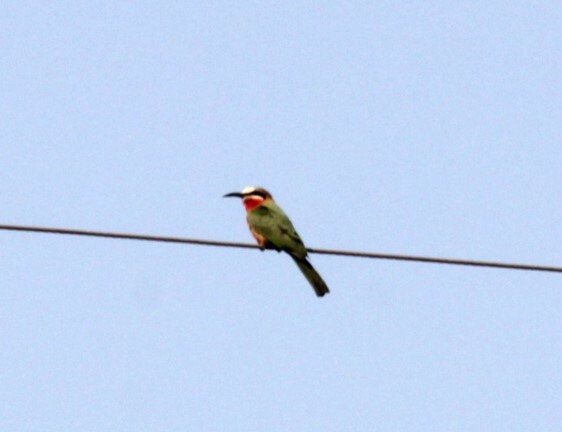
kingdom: Animalia
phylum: Chordata
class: Aves
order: Coraciiformes
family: Meropidae
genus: Merops
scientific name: Merops bullockoides
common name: White-fronted bee-eater
